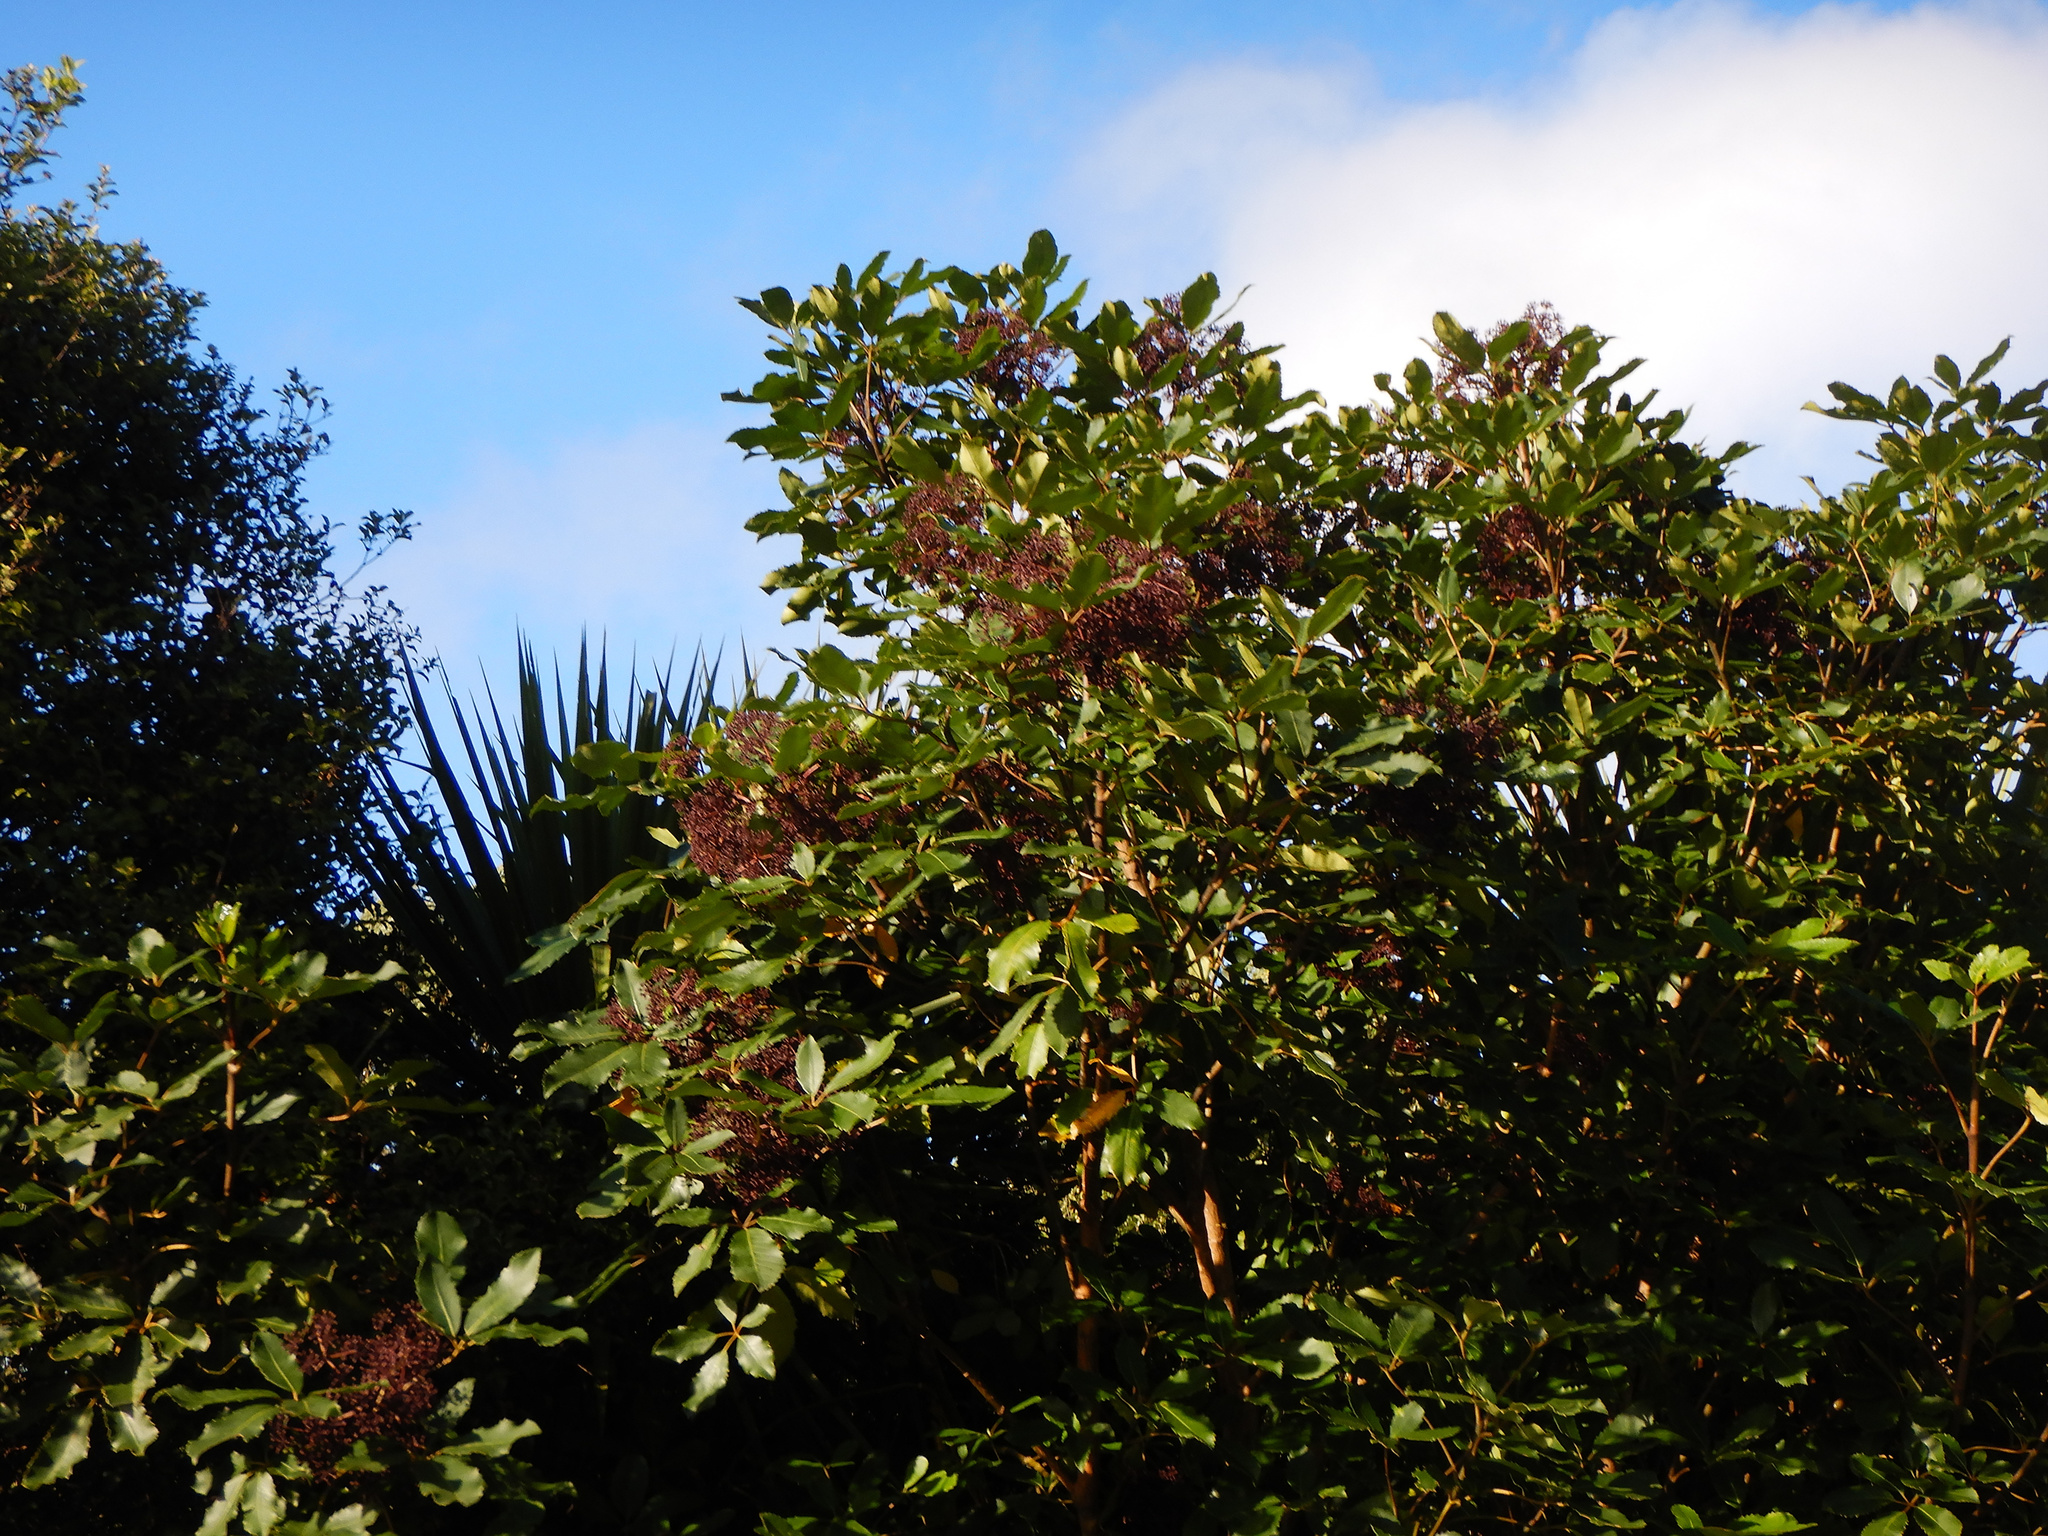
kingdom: Plantae
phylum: Tracheophyta
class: Magnoliopsida
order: Apiales
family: Araliaceae
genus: Neopanax
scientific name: Neopanax arboreus
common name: Five-fingers
